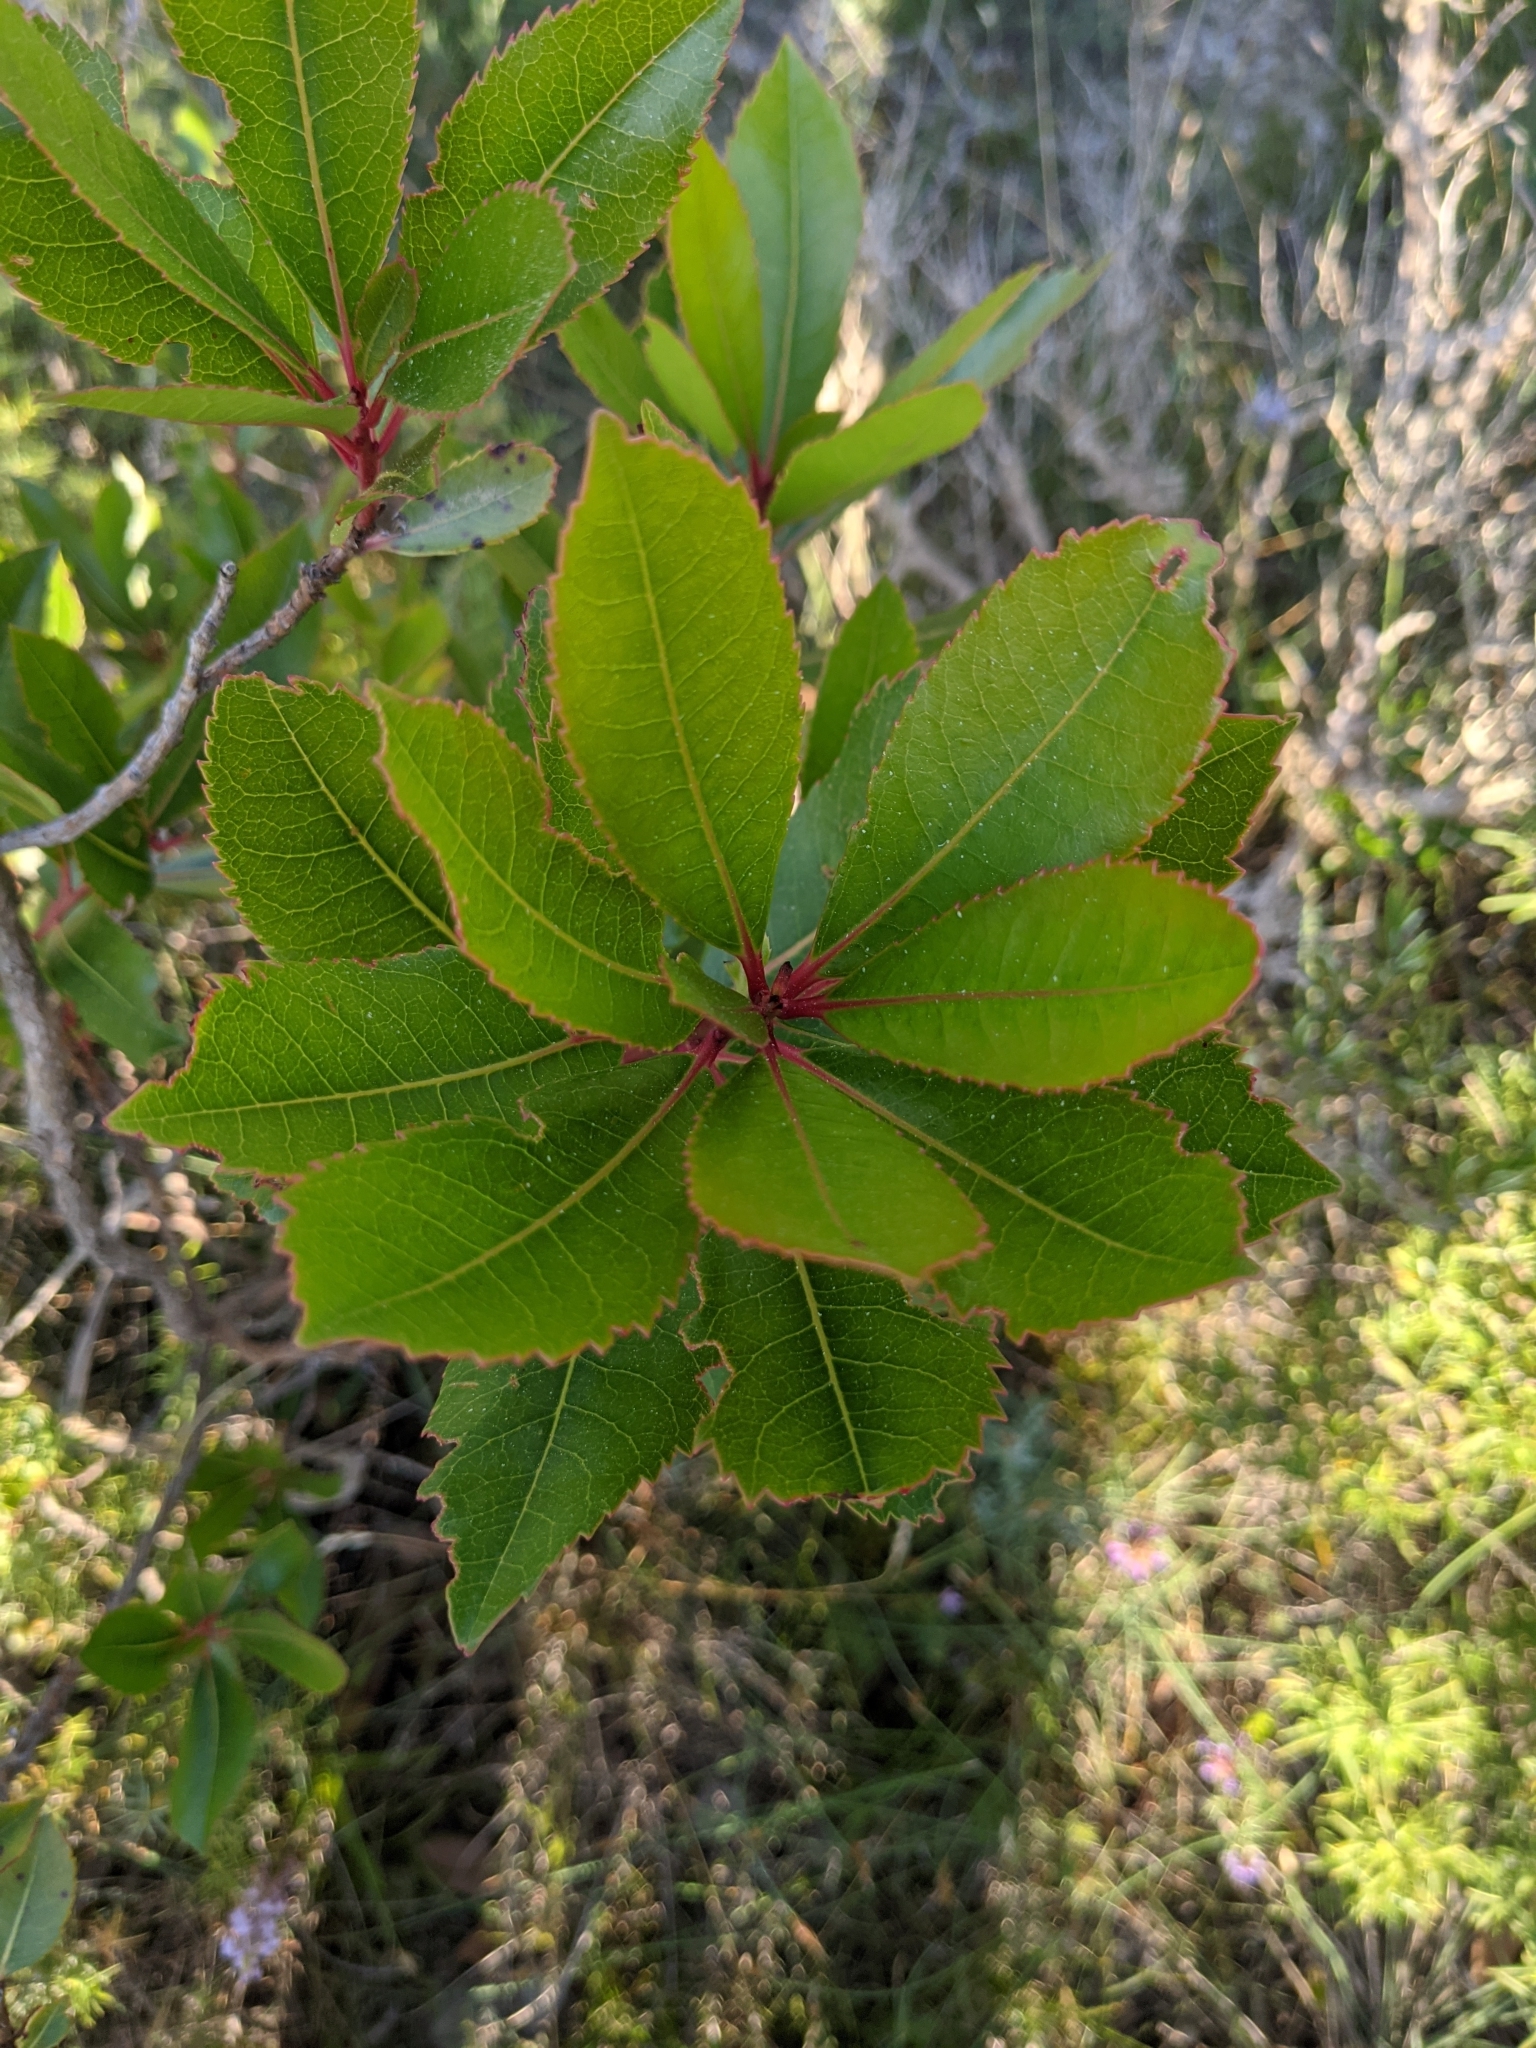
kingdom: Plantae
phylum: Tracheophyta
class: Magnoliopsida
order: Ericales
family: Ericaceae
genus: Arbutus
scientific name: Arbutus unedo
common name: Strawberry-tree
